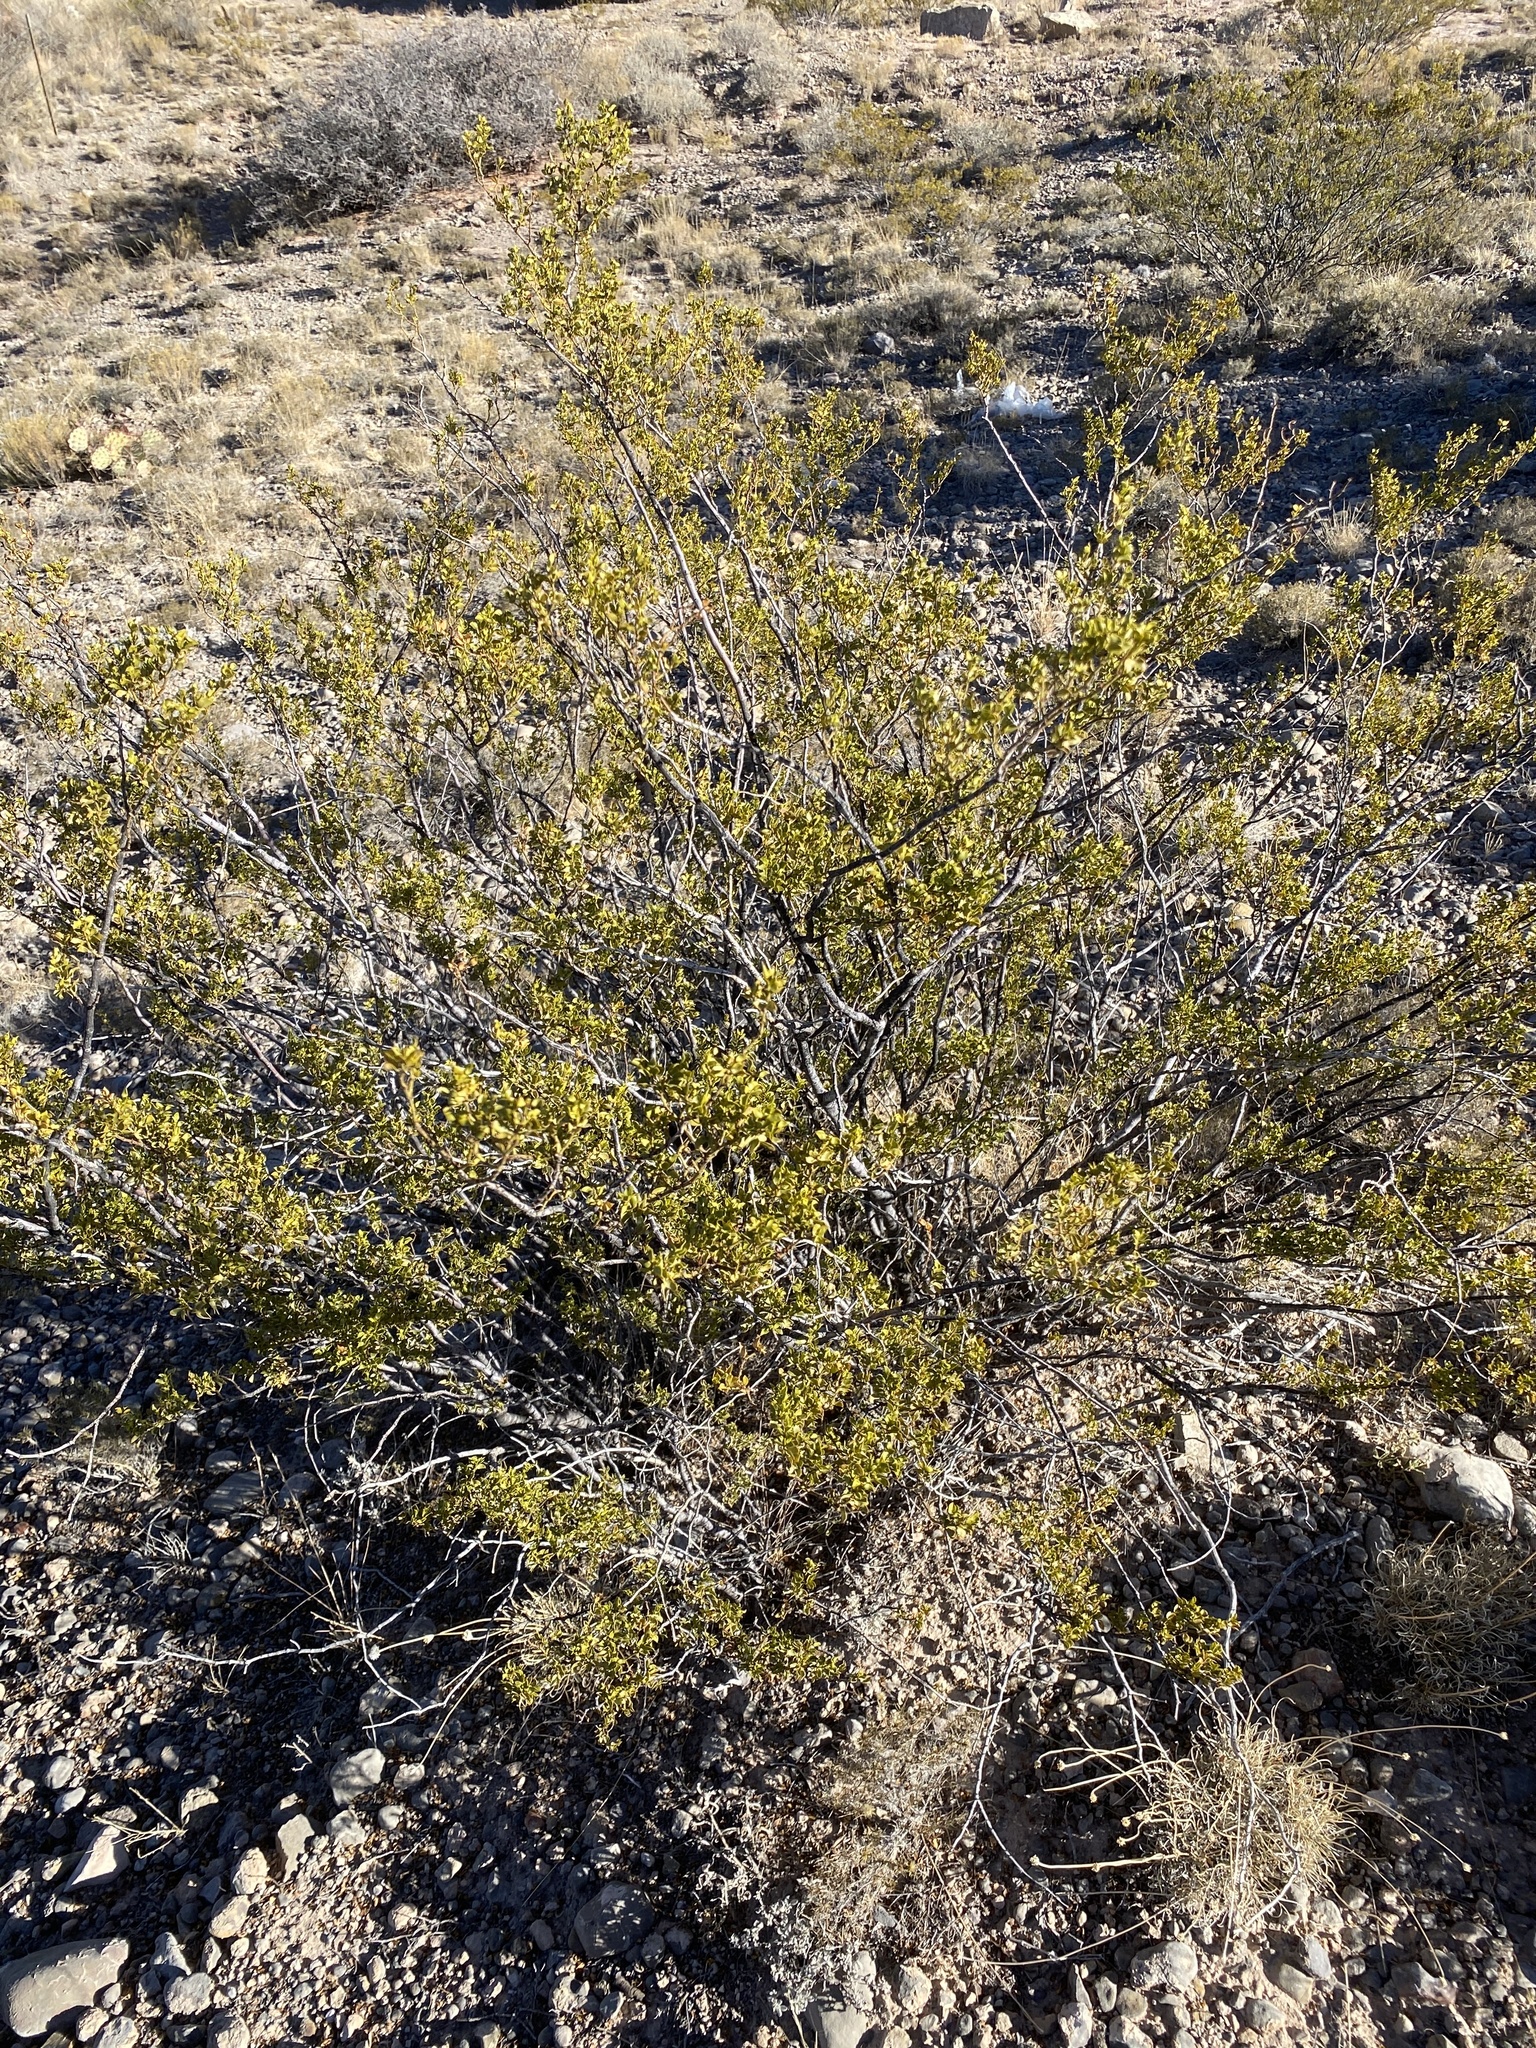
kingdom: Plantae
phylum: Tracheophyta
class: Magnoliopsida
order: Zygophyllales
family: Zygophyllaceae
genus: Larrea
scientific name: Larrea tridentata
